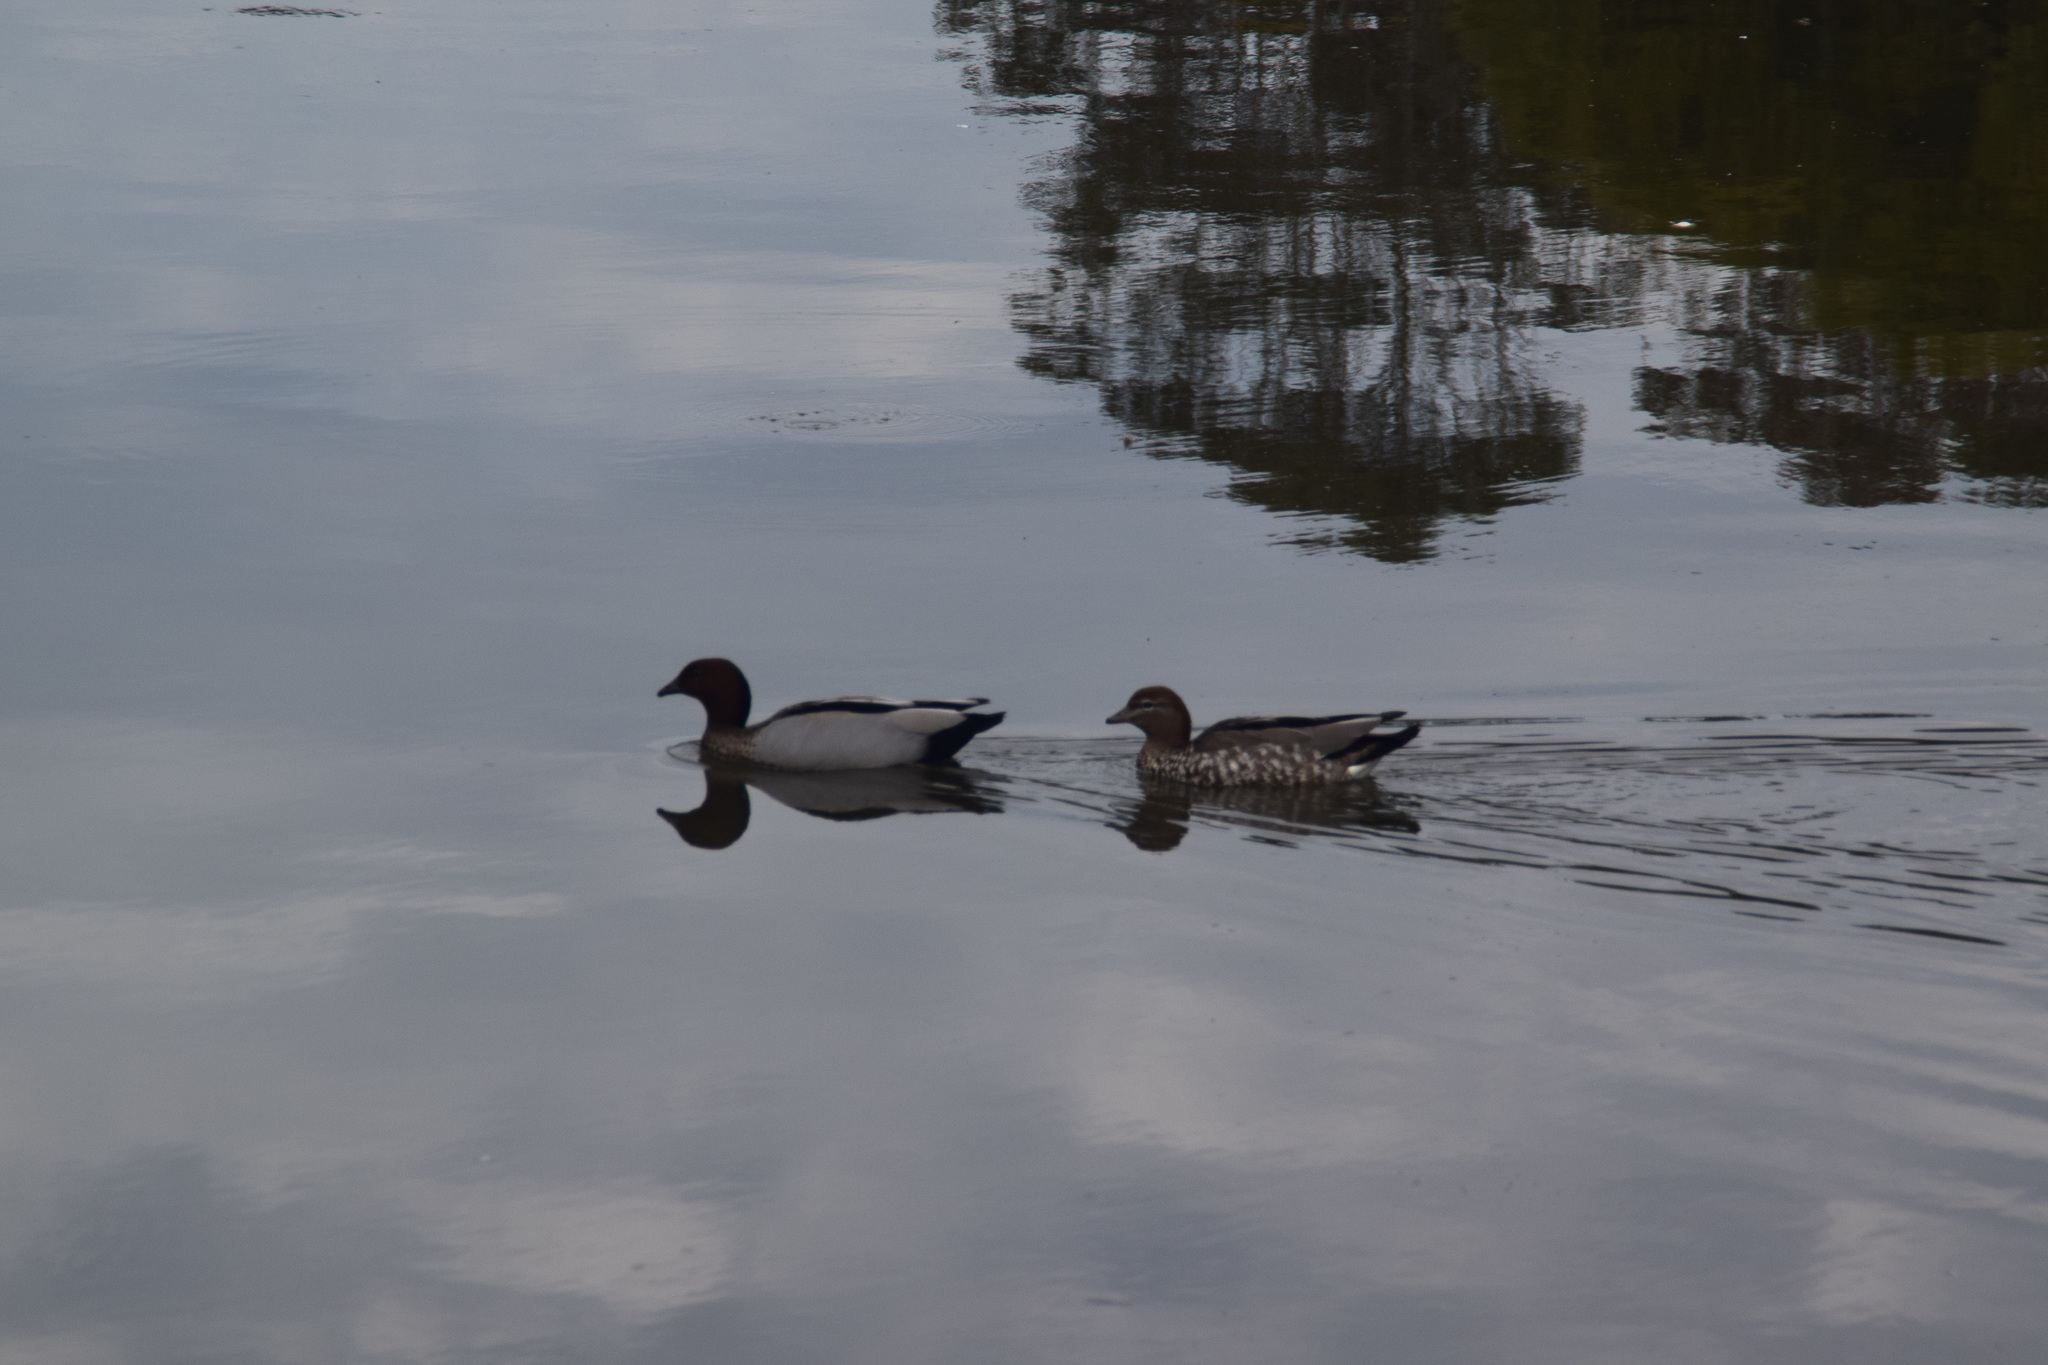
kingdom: Animalia
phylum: Chordata
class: Aves
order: Anseriformes
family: Anatidae
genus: Chenonetta
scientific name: Chenonetta jubata
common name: Maned duck
